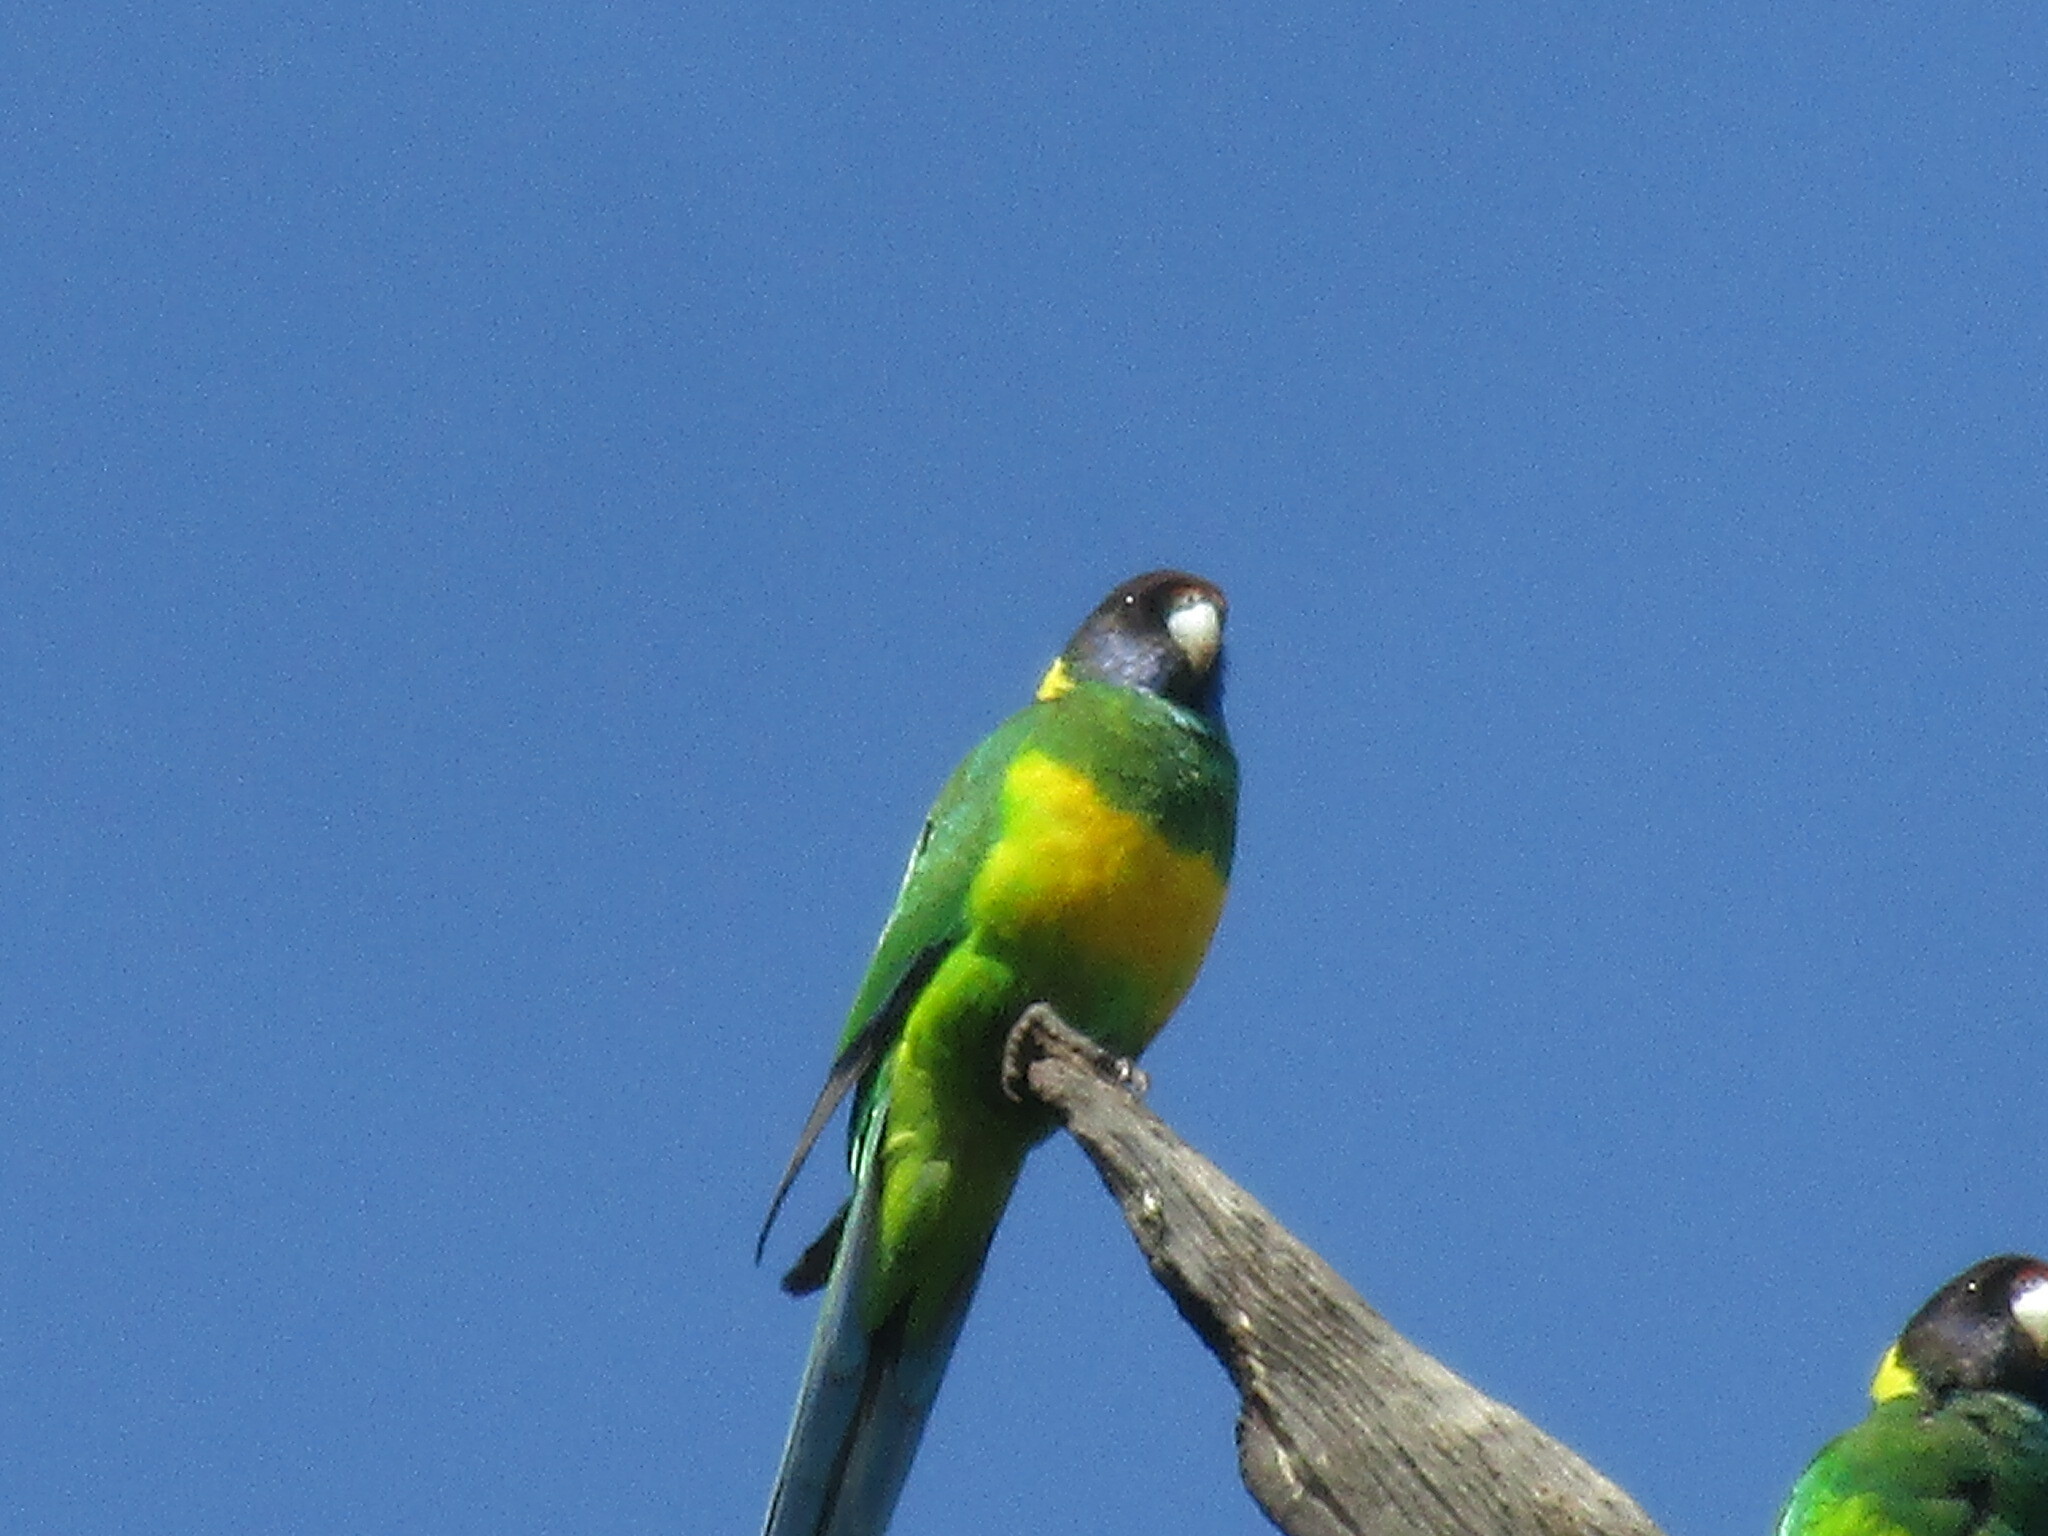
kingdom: Animalia
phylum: Chordata
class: Aves
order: Psittaciformes
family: Psittacidae
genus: Barnardius
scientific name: Barnardius
